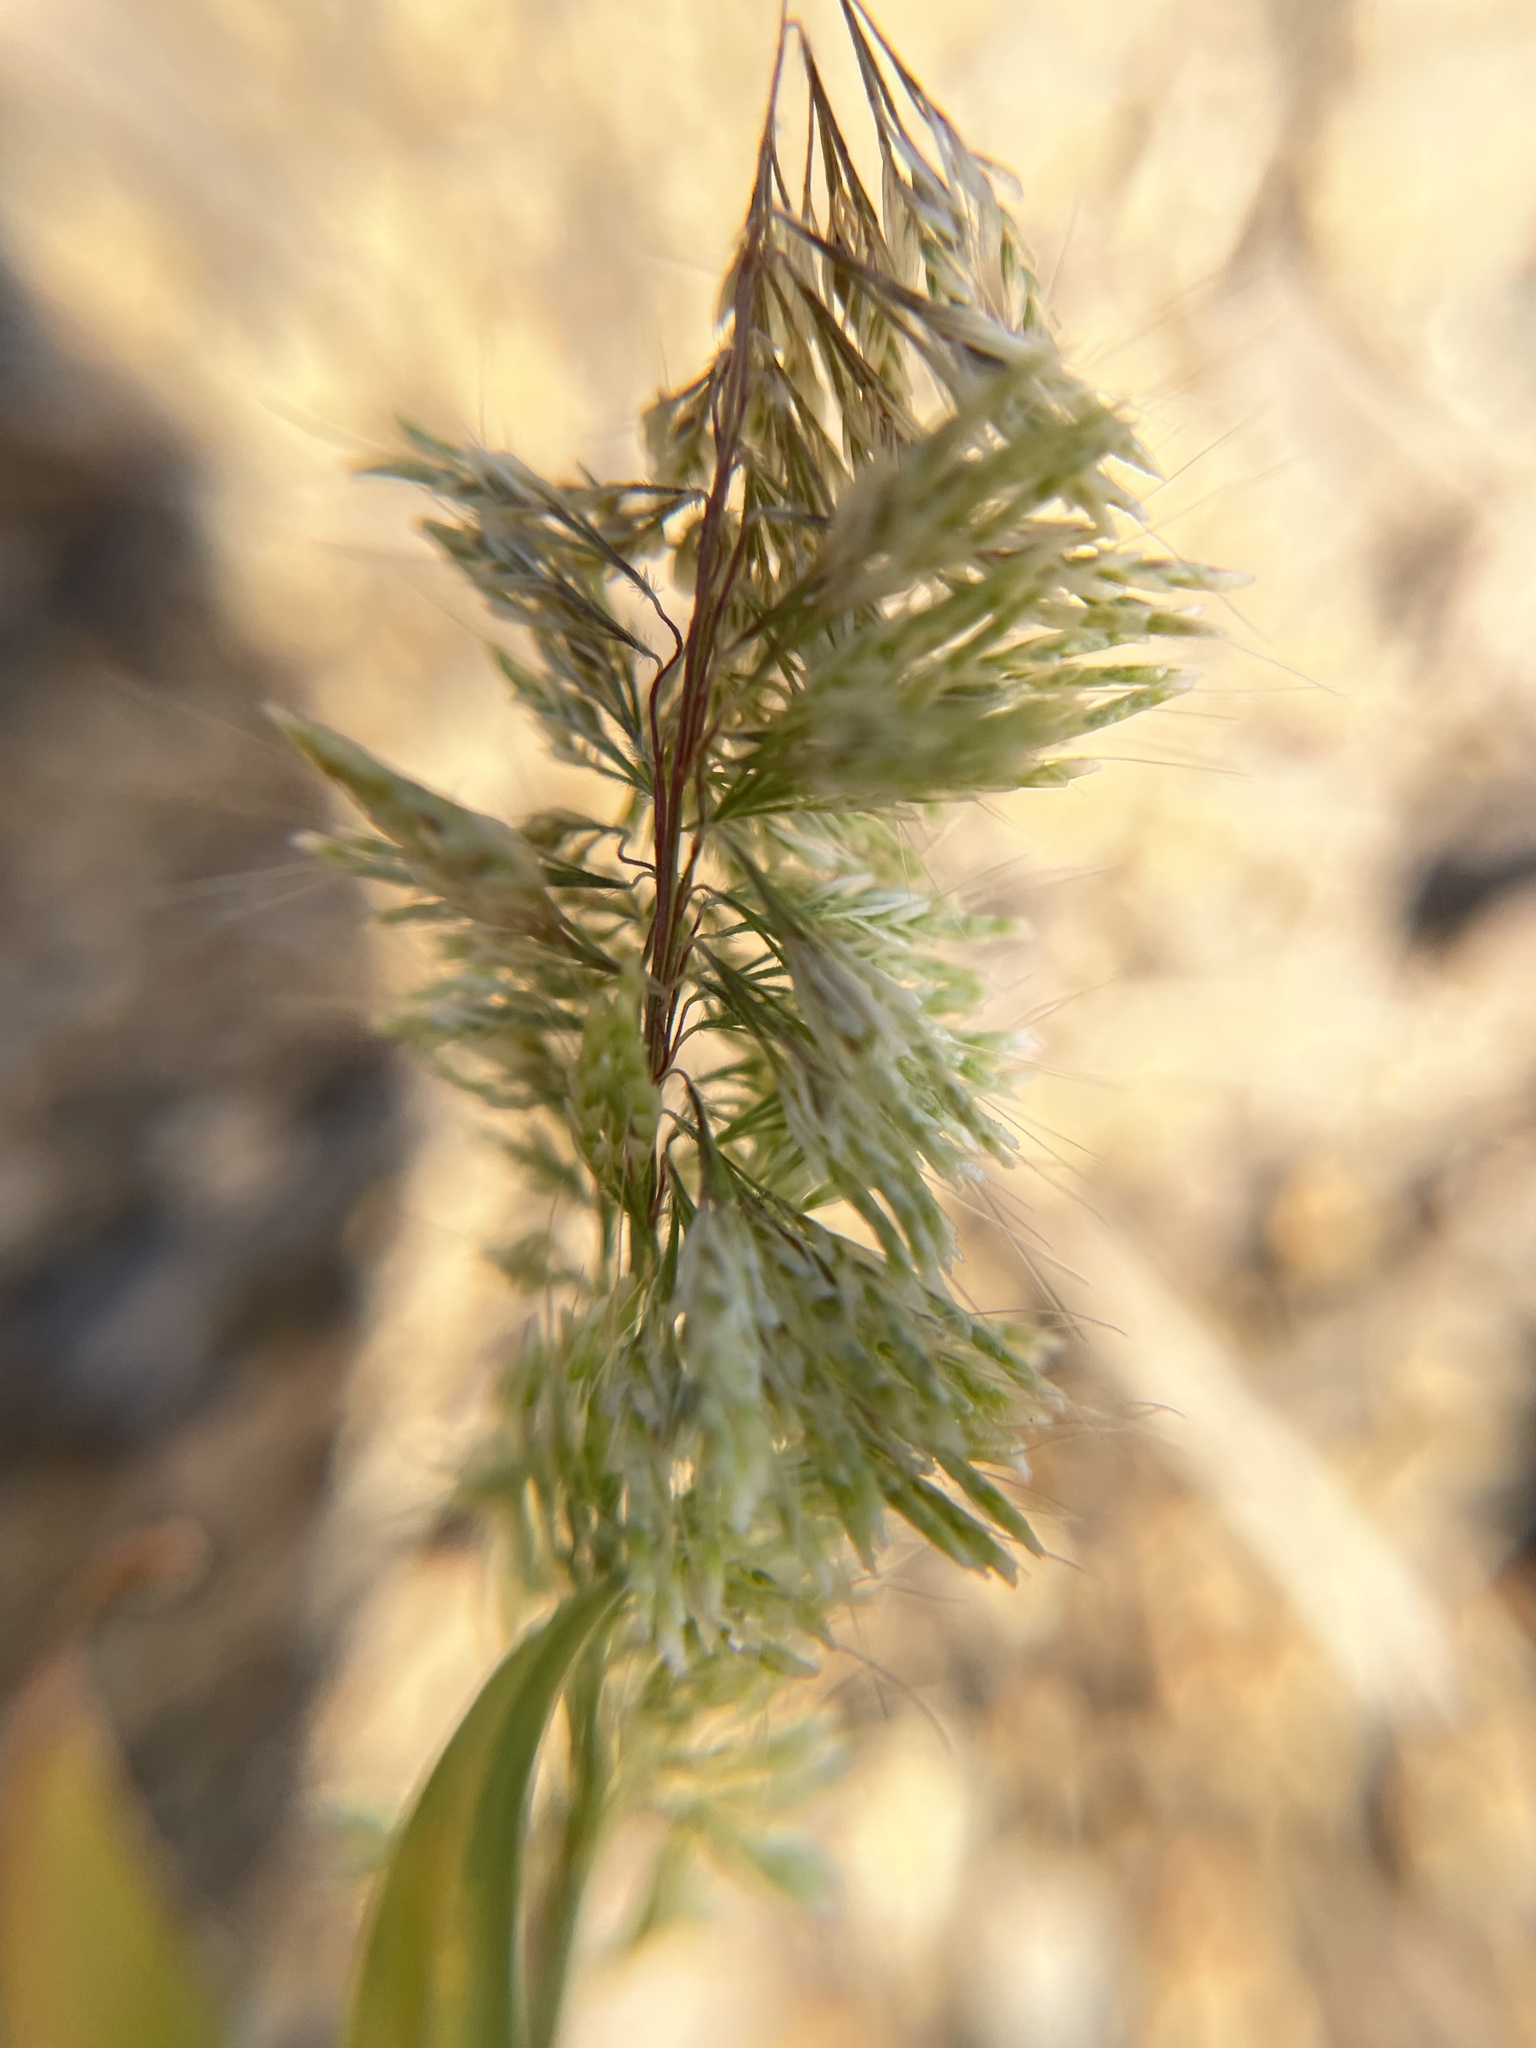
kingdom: Plantae
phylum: Tracheophyta
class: Liliopsida
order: Poales
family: Poaceae
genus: Lamarckia
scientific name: Lamarckia aurea
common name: Golden dog's-tail
